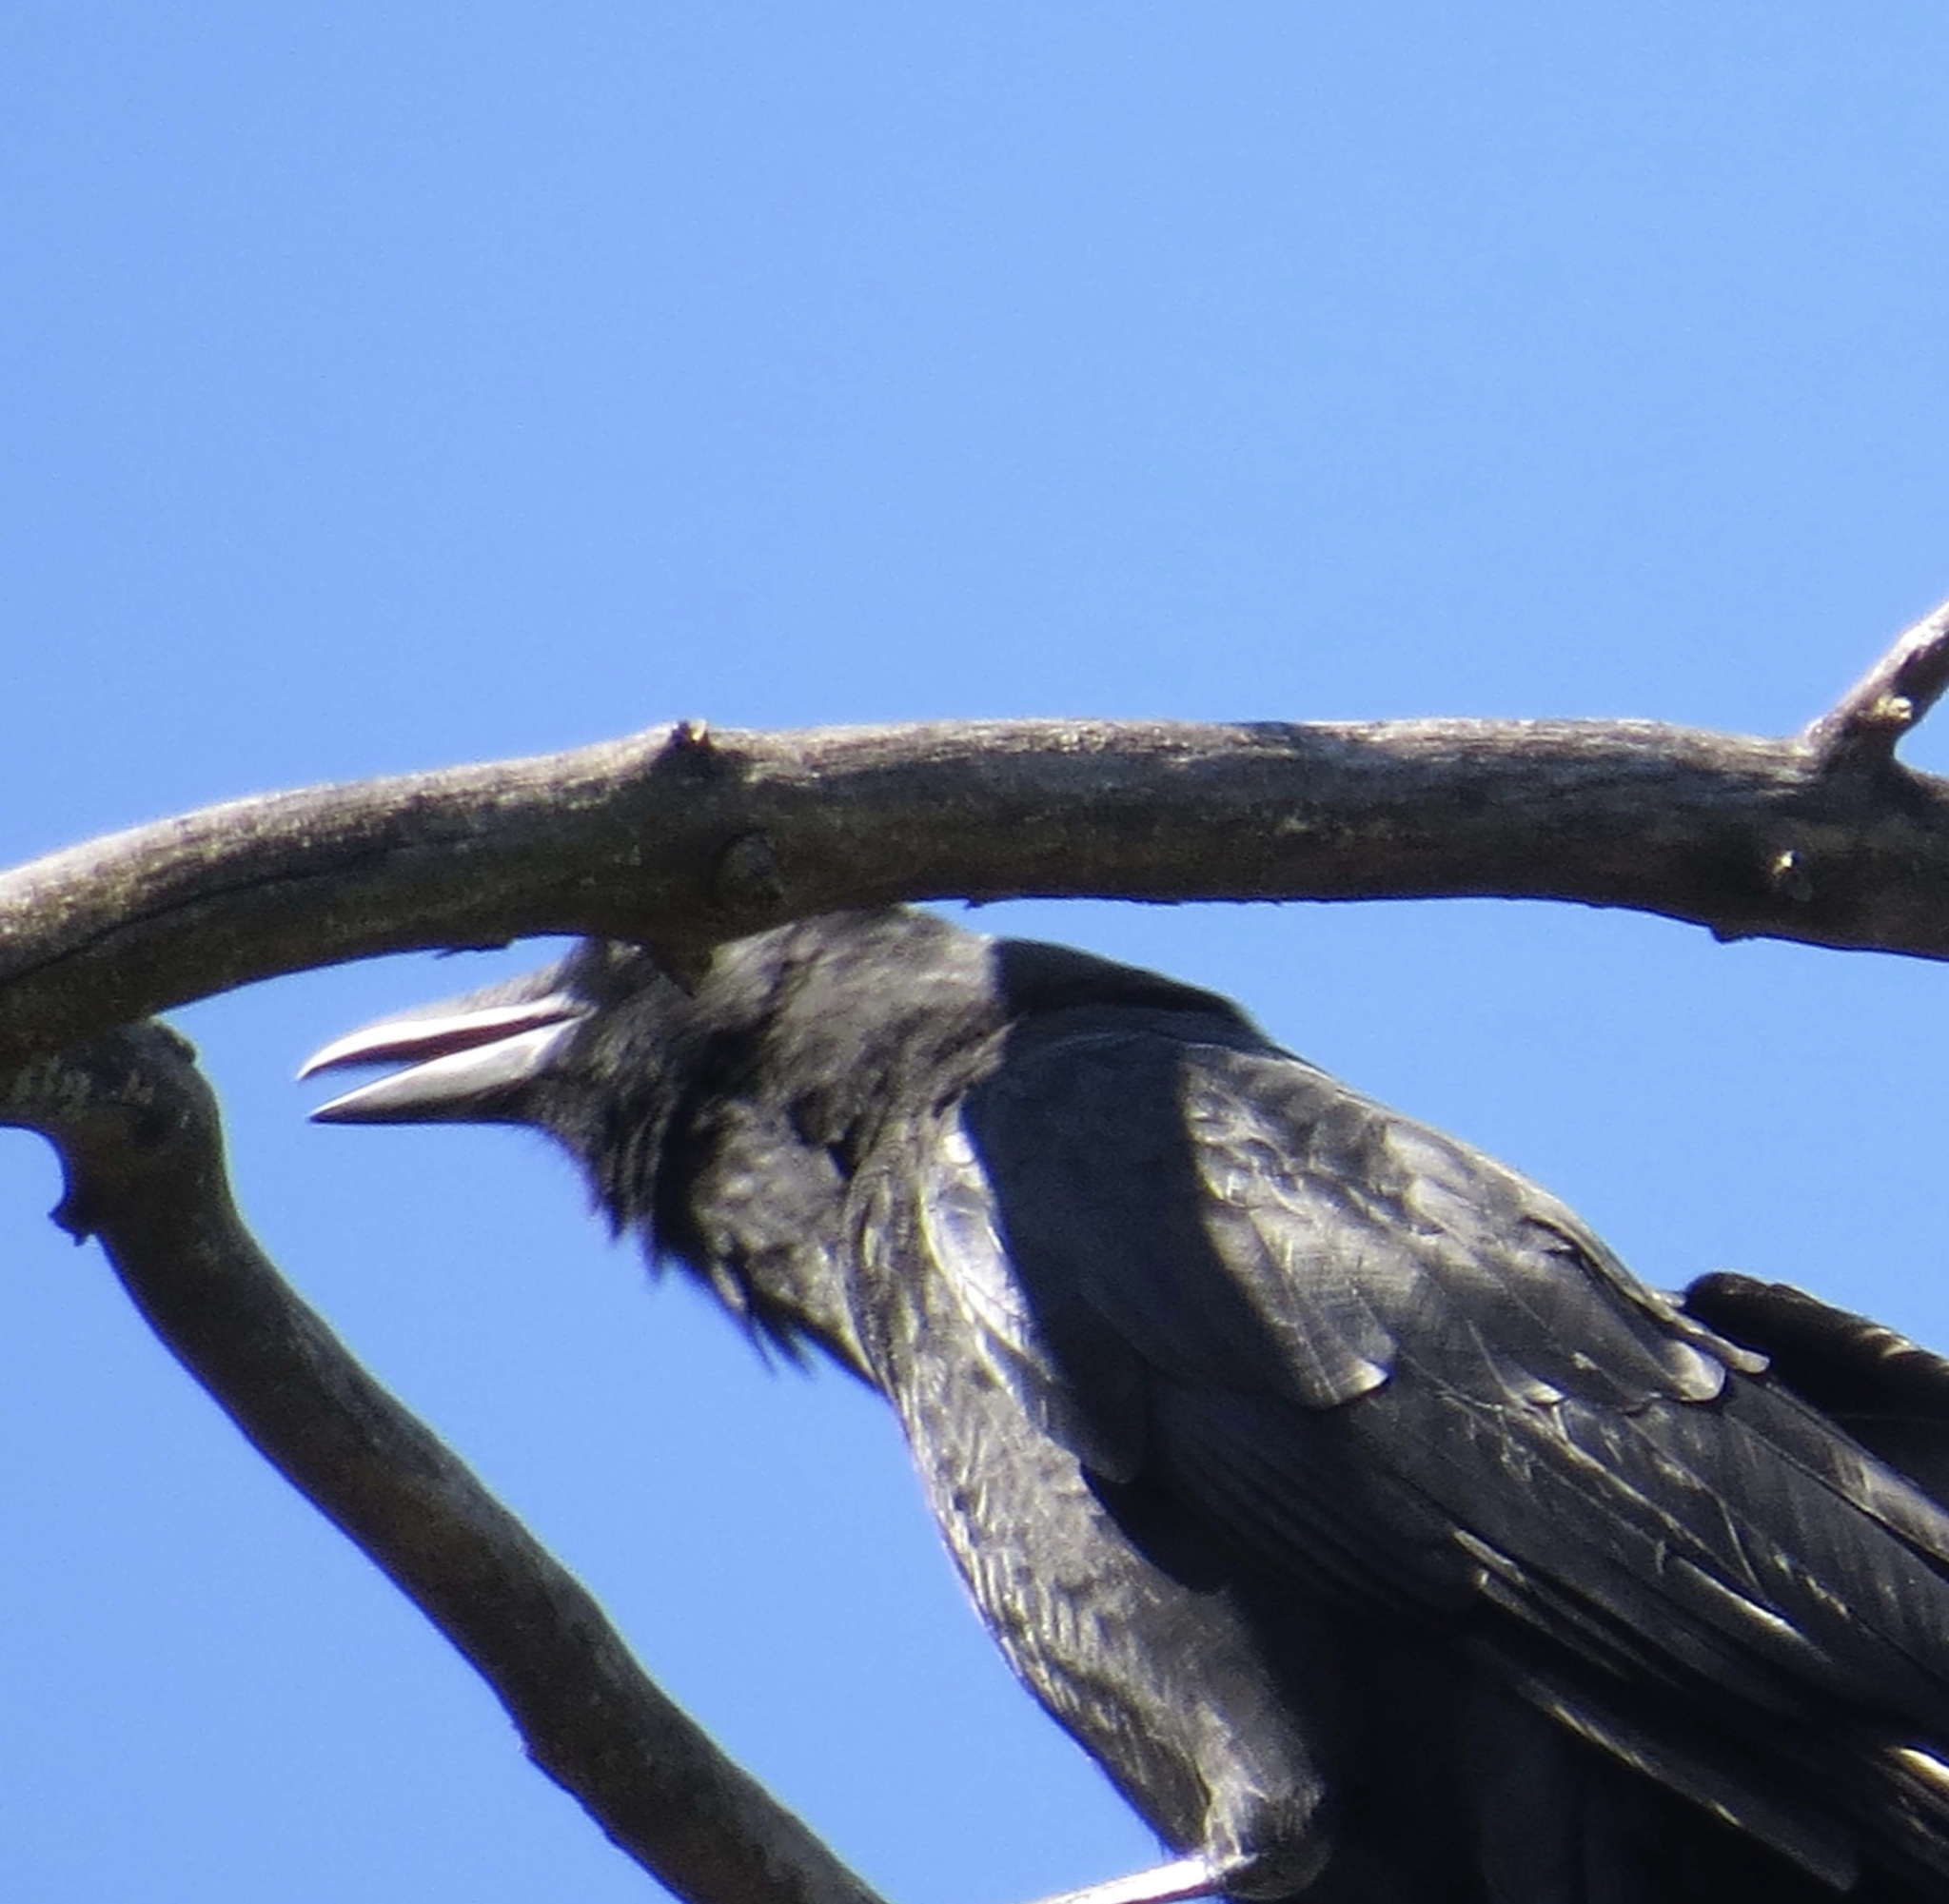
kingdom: Animalia
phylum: Chordata
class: Aves
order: Passeriformes
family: Corvidae
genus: Corvus
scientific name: Corvus brachyrhynchos
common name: American crow
